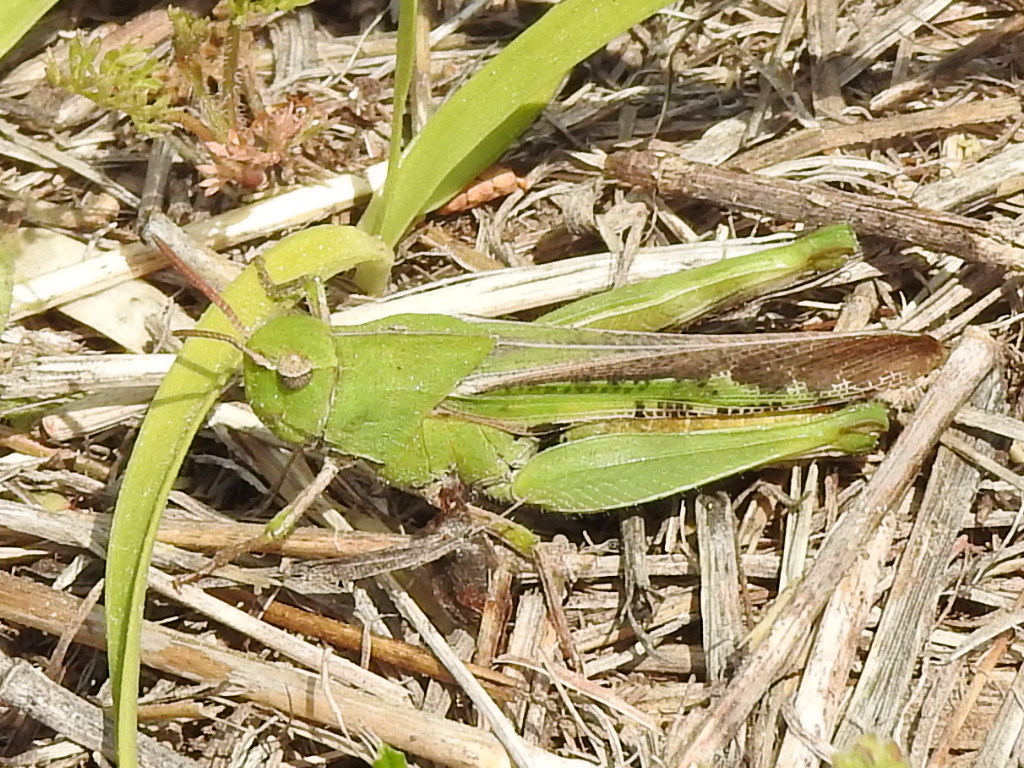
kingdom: Animalia
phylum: Arthropoda
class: Insecta
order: Orthoptera
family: Acrididae
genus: Chortophaga
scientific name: Chortophaga viridifasciata
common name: Green-striped grasshopper
